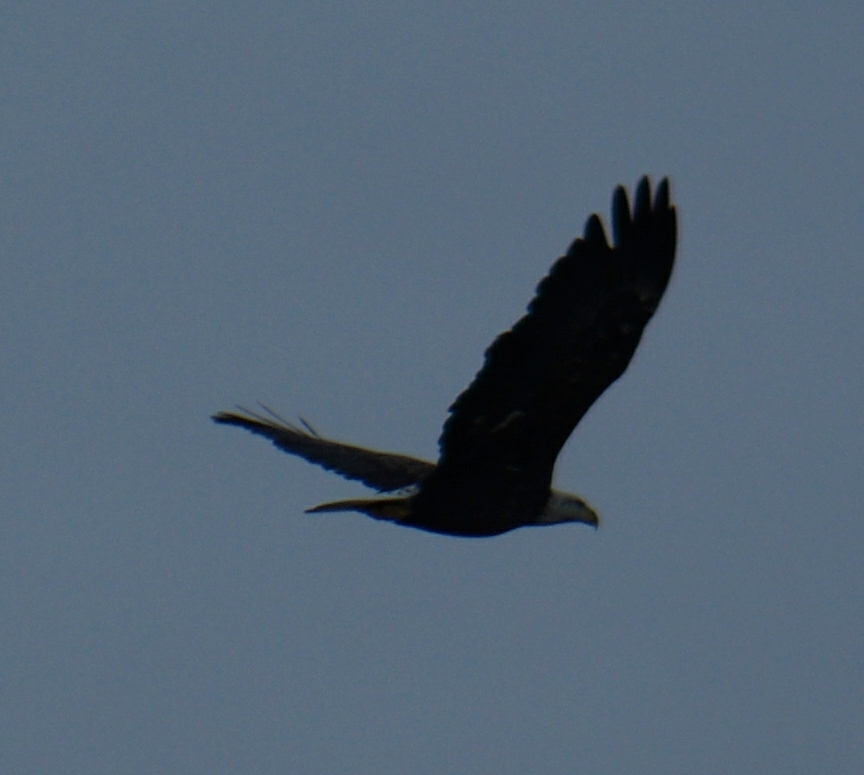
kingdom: Animalia
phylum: Chordata
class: Aves
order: Accipitriformes
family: Accipitridae
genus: Haliaeetus
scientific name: Haliaeetus leucocephalus
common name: Bald eagle
